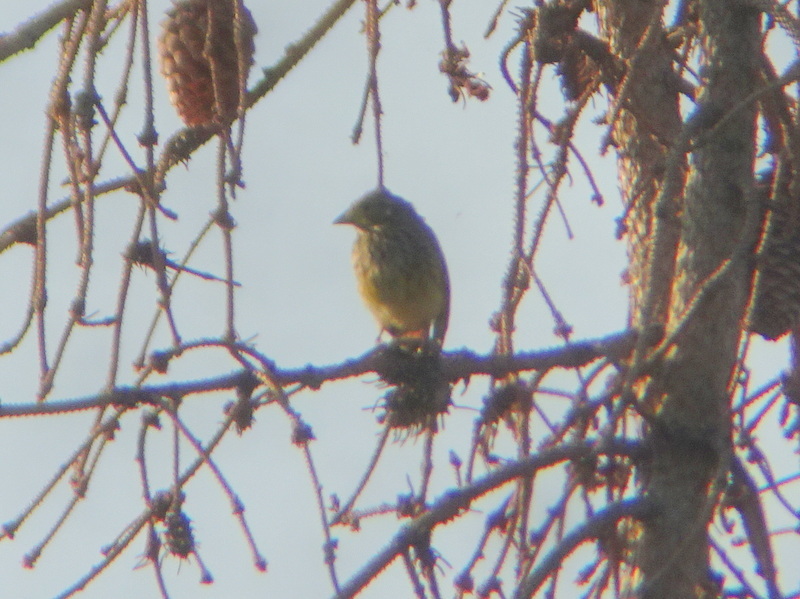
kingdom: Animalia
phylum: Chordata
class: Aves
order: Passeriformes
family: Emberizidae
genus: Emberiza
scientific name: Emberiza citrinella
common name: Yellowhammer
